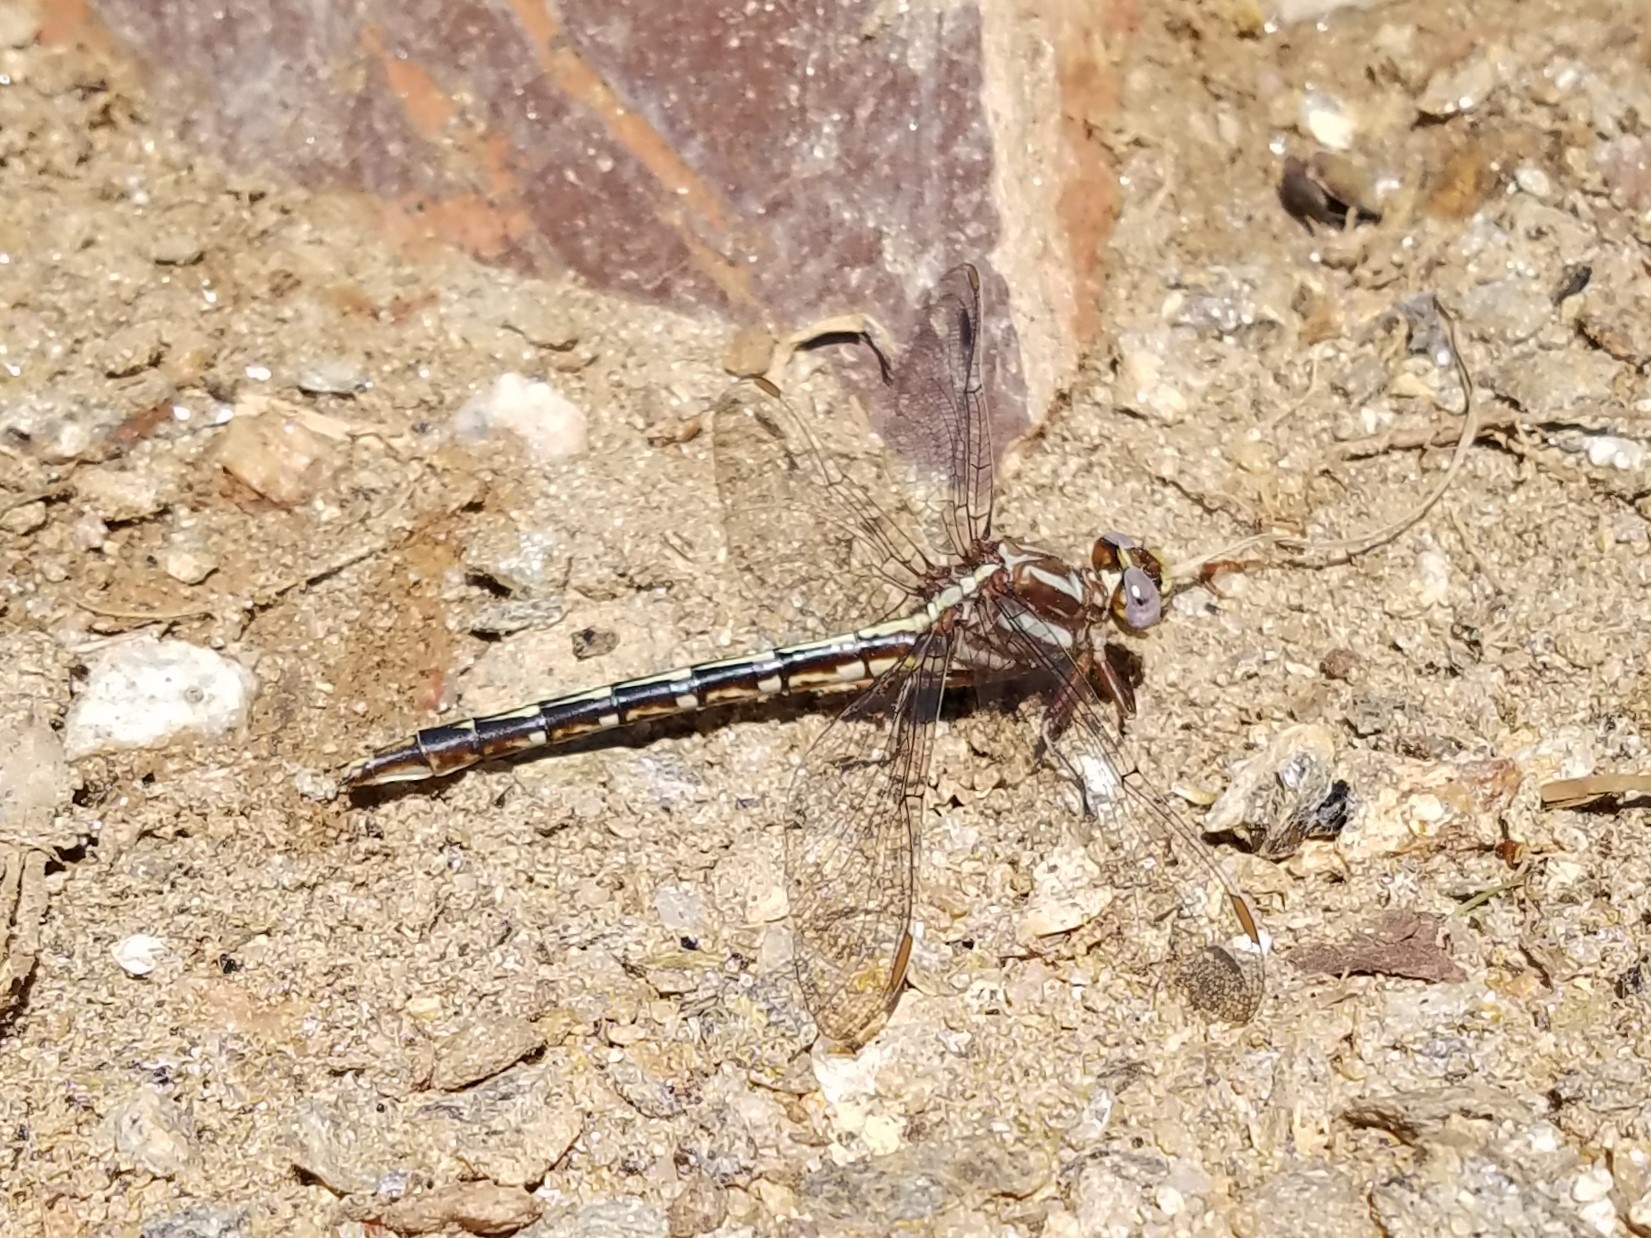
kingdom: Animalia
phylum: Arthropoda
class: Insecta
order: Odonata
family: Gomphidae
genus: Phanogomphus
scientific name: Phanogomphus lividus
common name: Ashy clubtail
